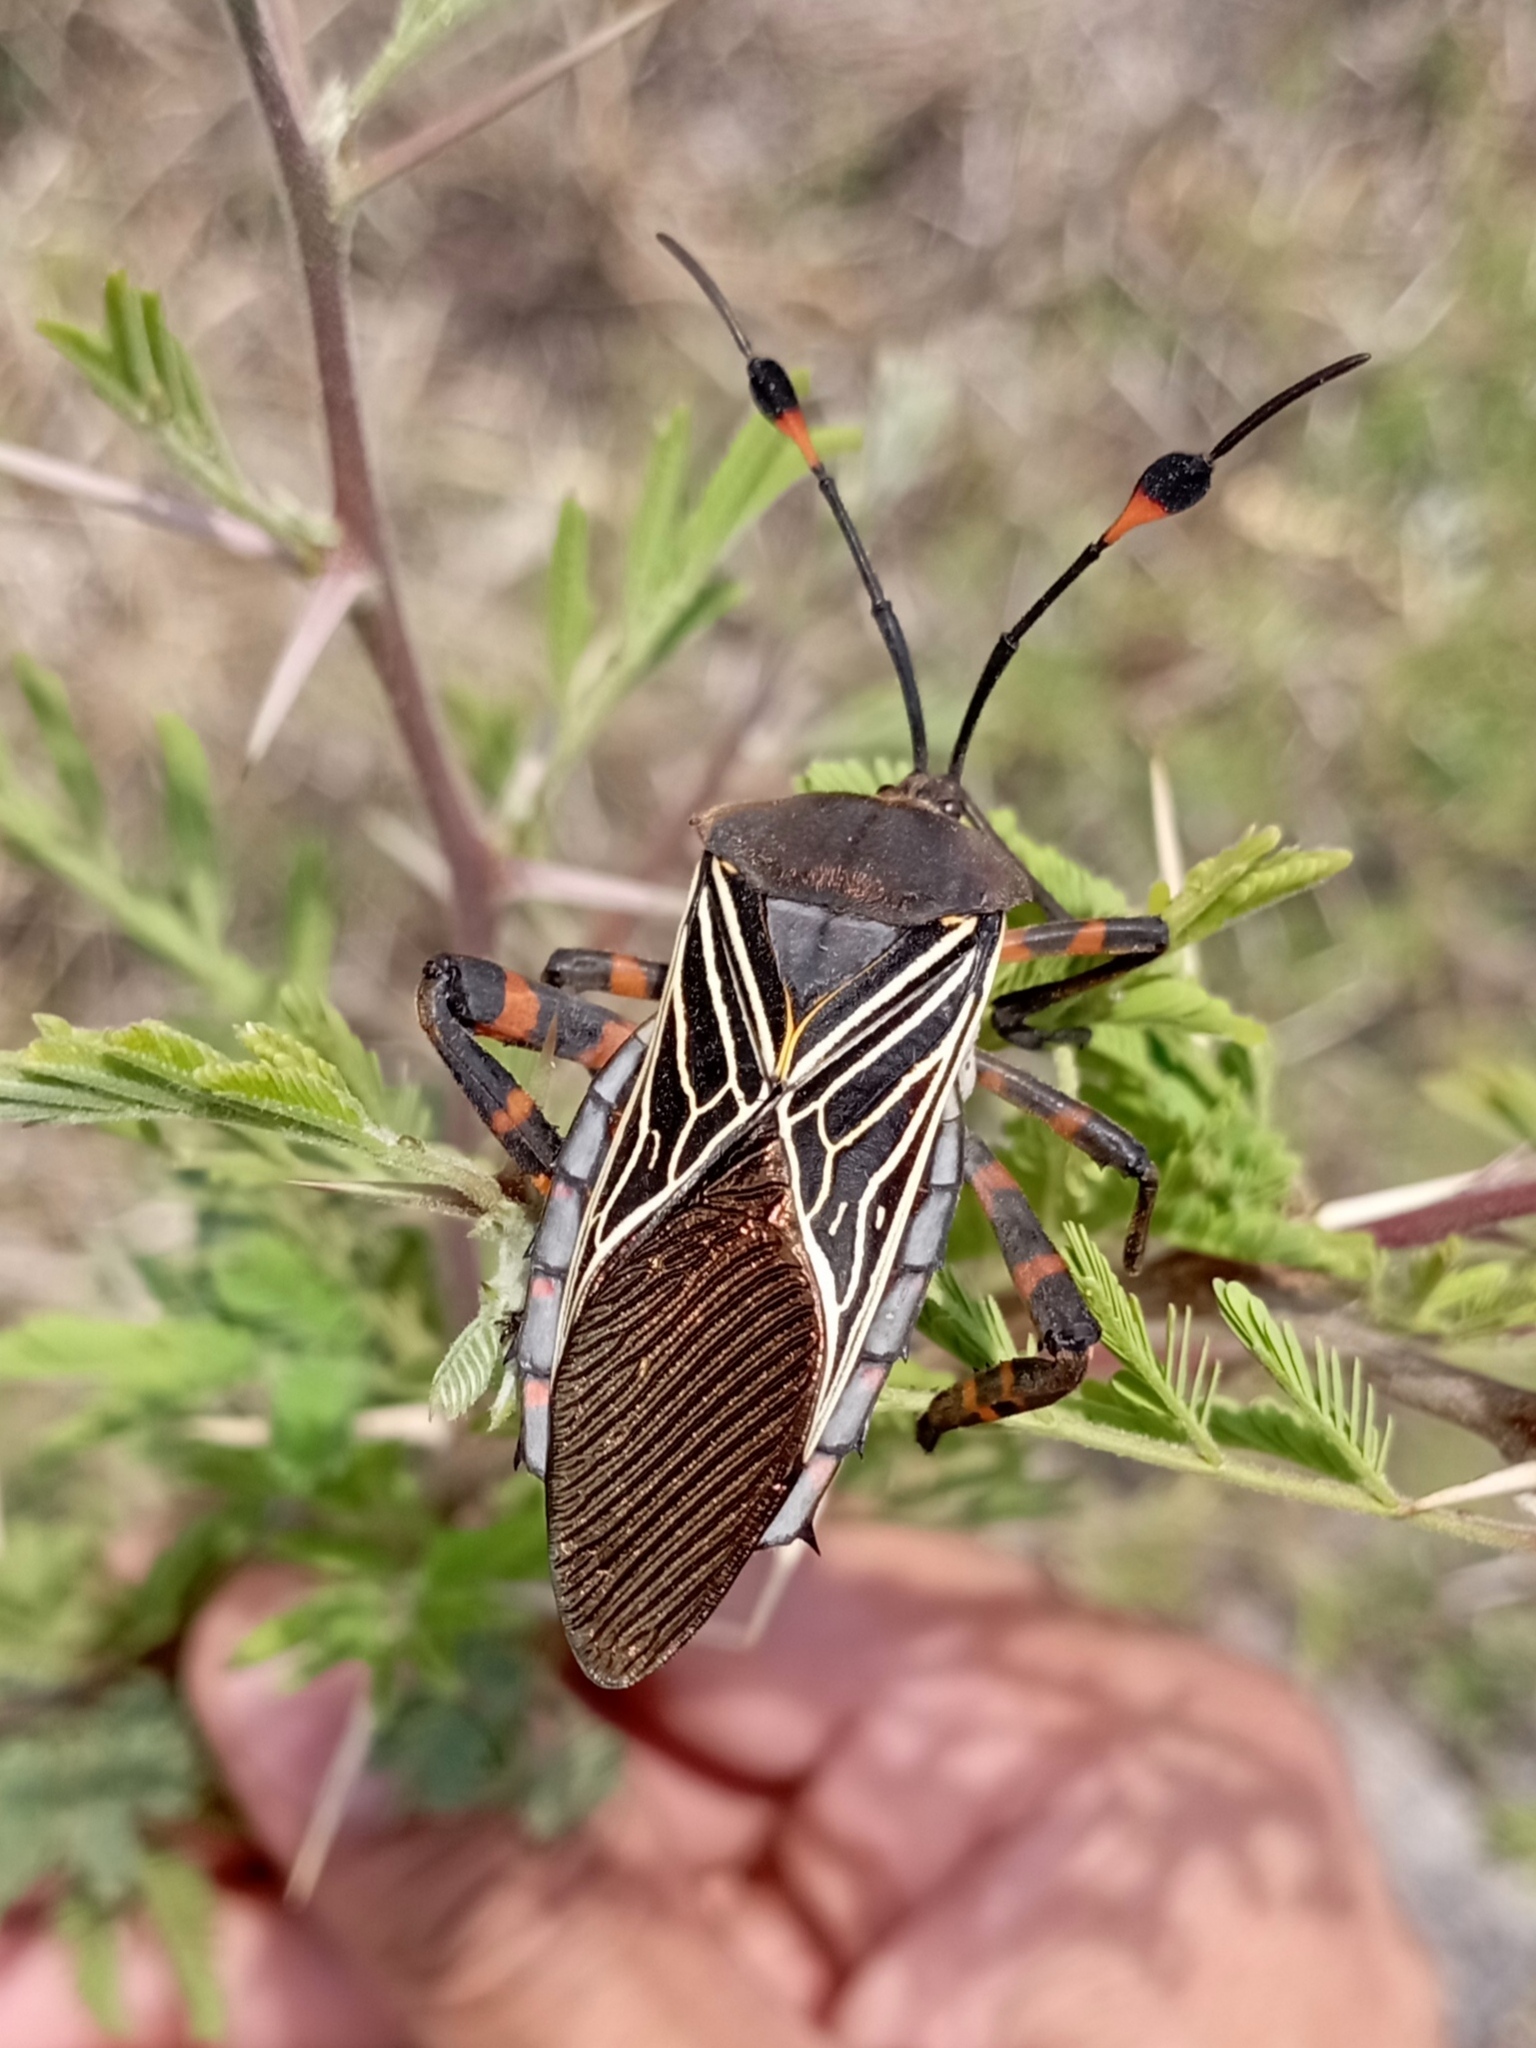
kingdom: Animalia
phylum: Arthropoda
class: Insecta
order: Hemiptera
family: Coreidae
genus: Thasus
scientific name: Thasus
